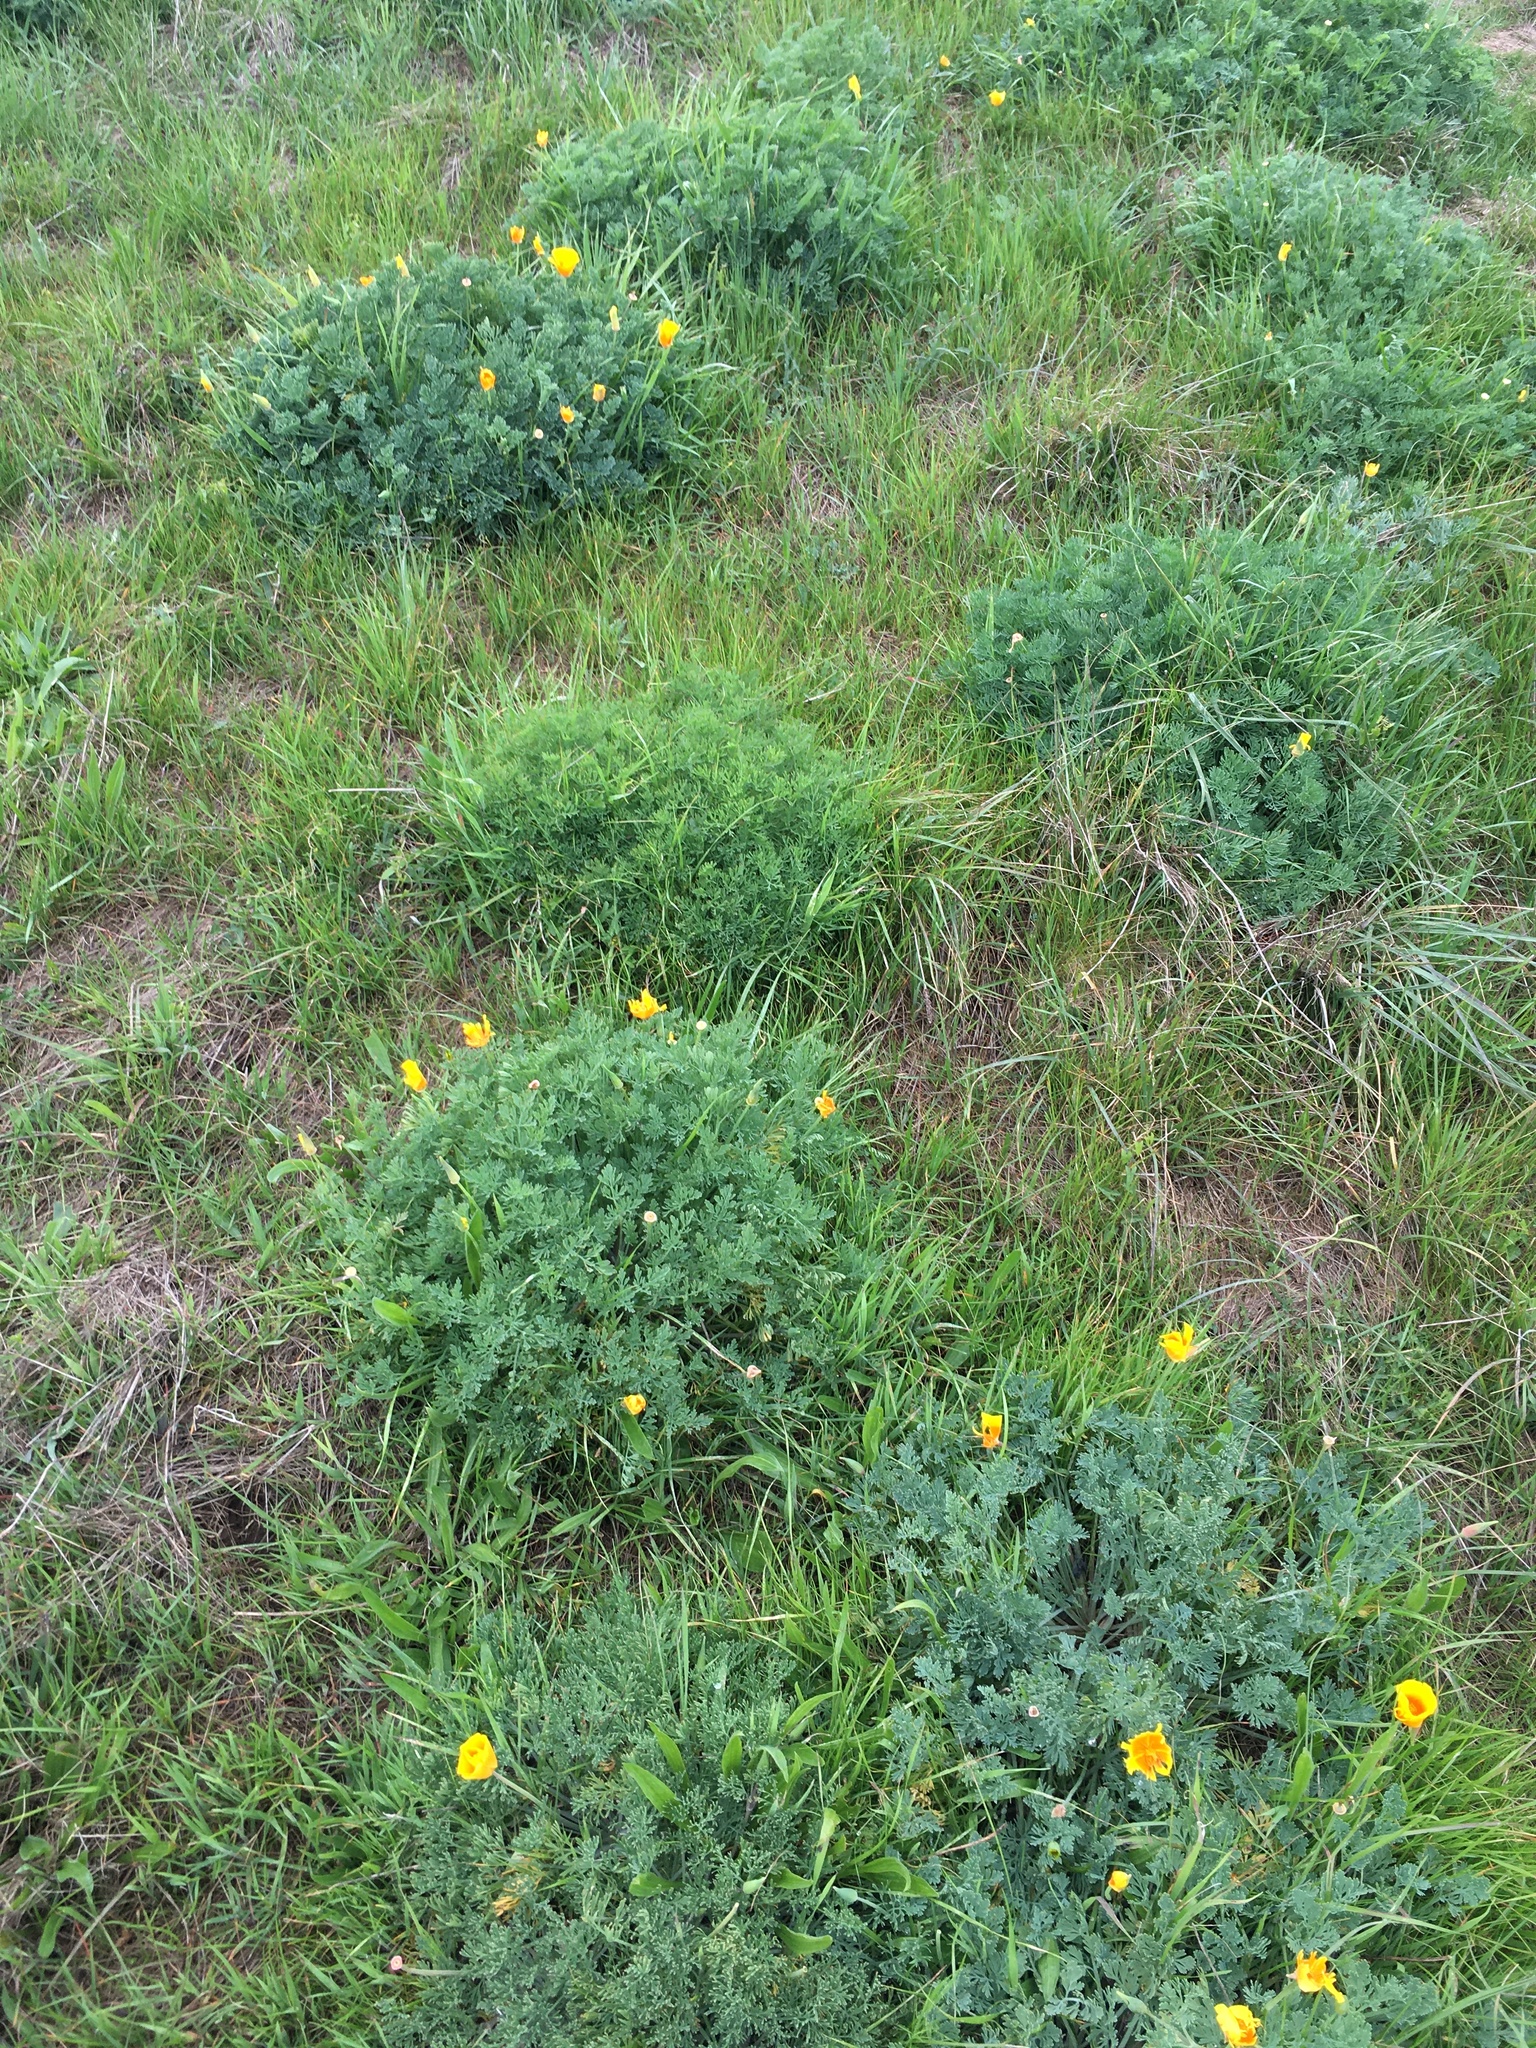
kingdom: Plantae
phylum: Tracheophyta
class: Magnoliopsida
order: Ranunculales
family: Papaveraceae
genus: Eschscholzia
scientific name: Eschscholzia californica
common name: California poppy
